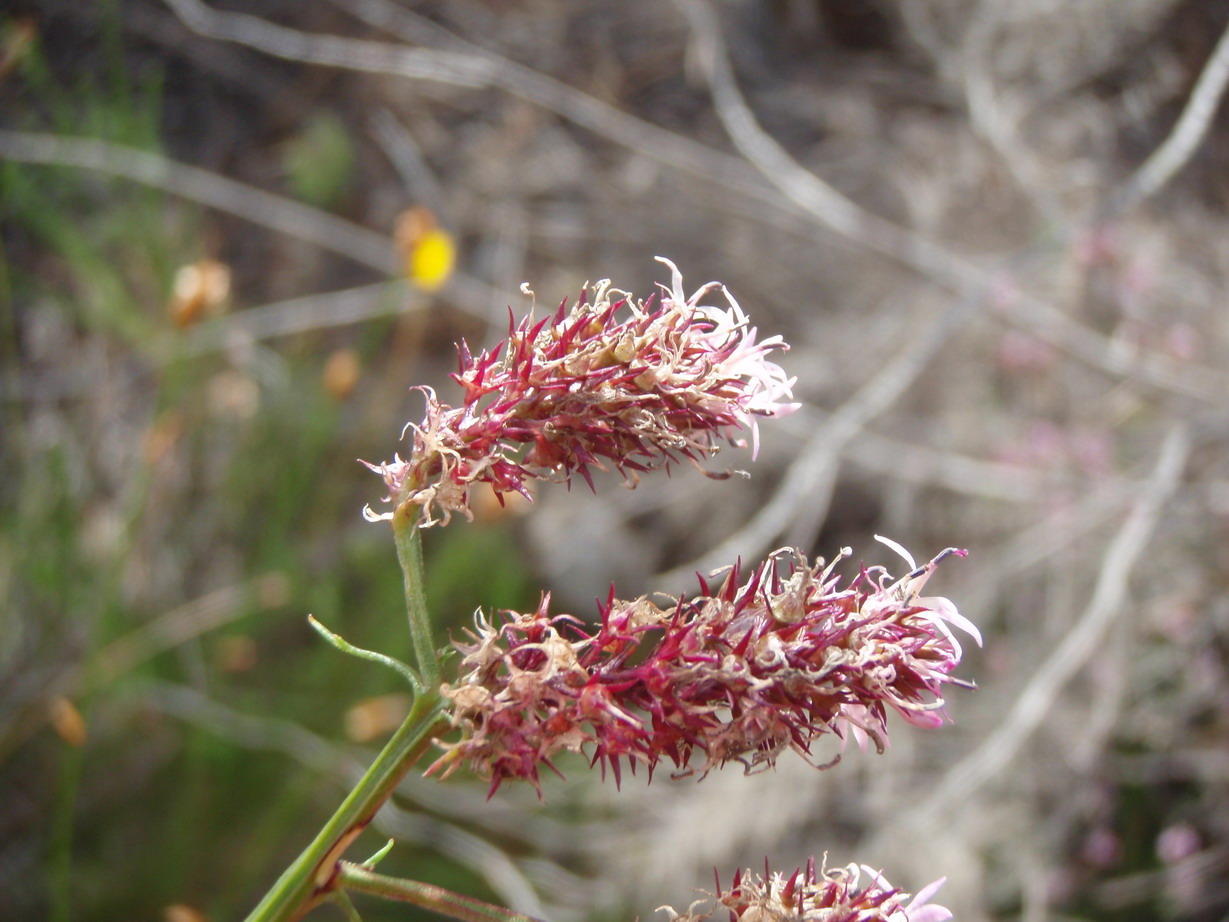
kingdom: Plantae
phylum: Tracheophyta
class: Magnoliopsida
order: Asterales
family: Campanulaceae
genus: Lobelia
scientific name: Lobelia jasionoides
